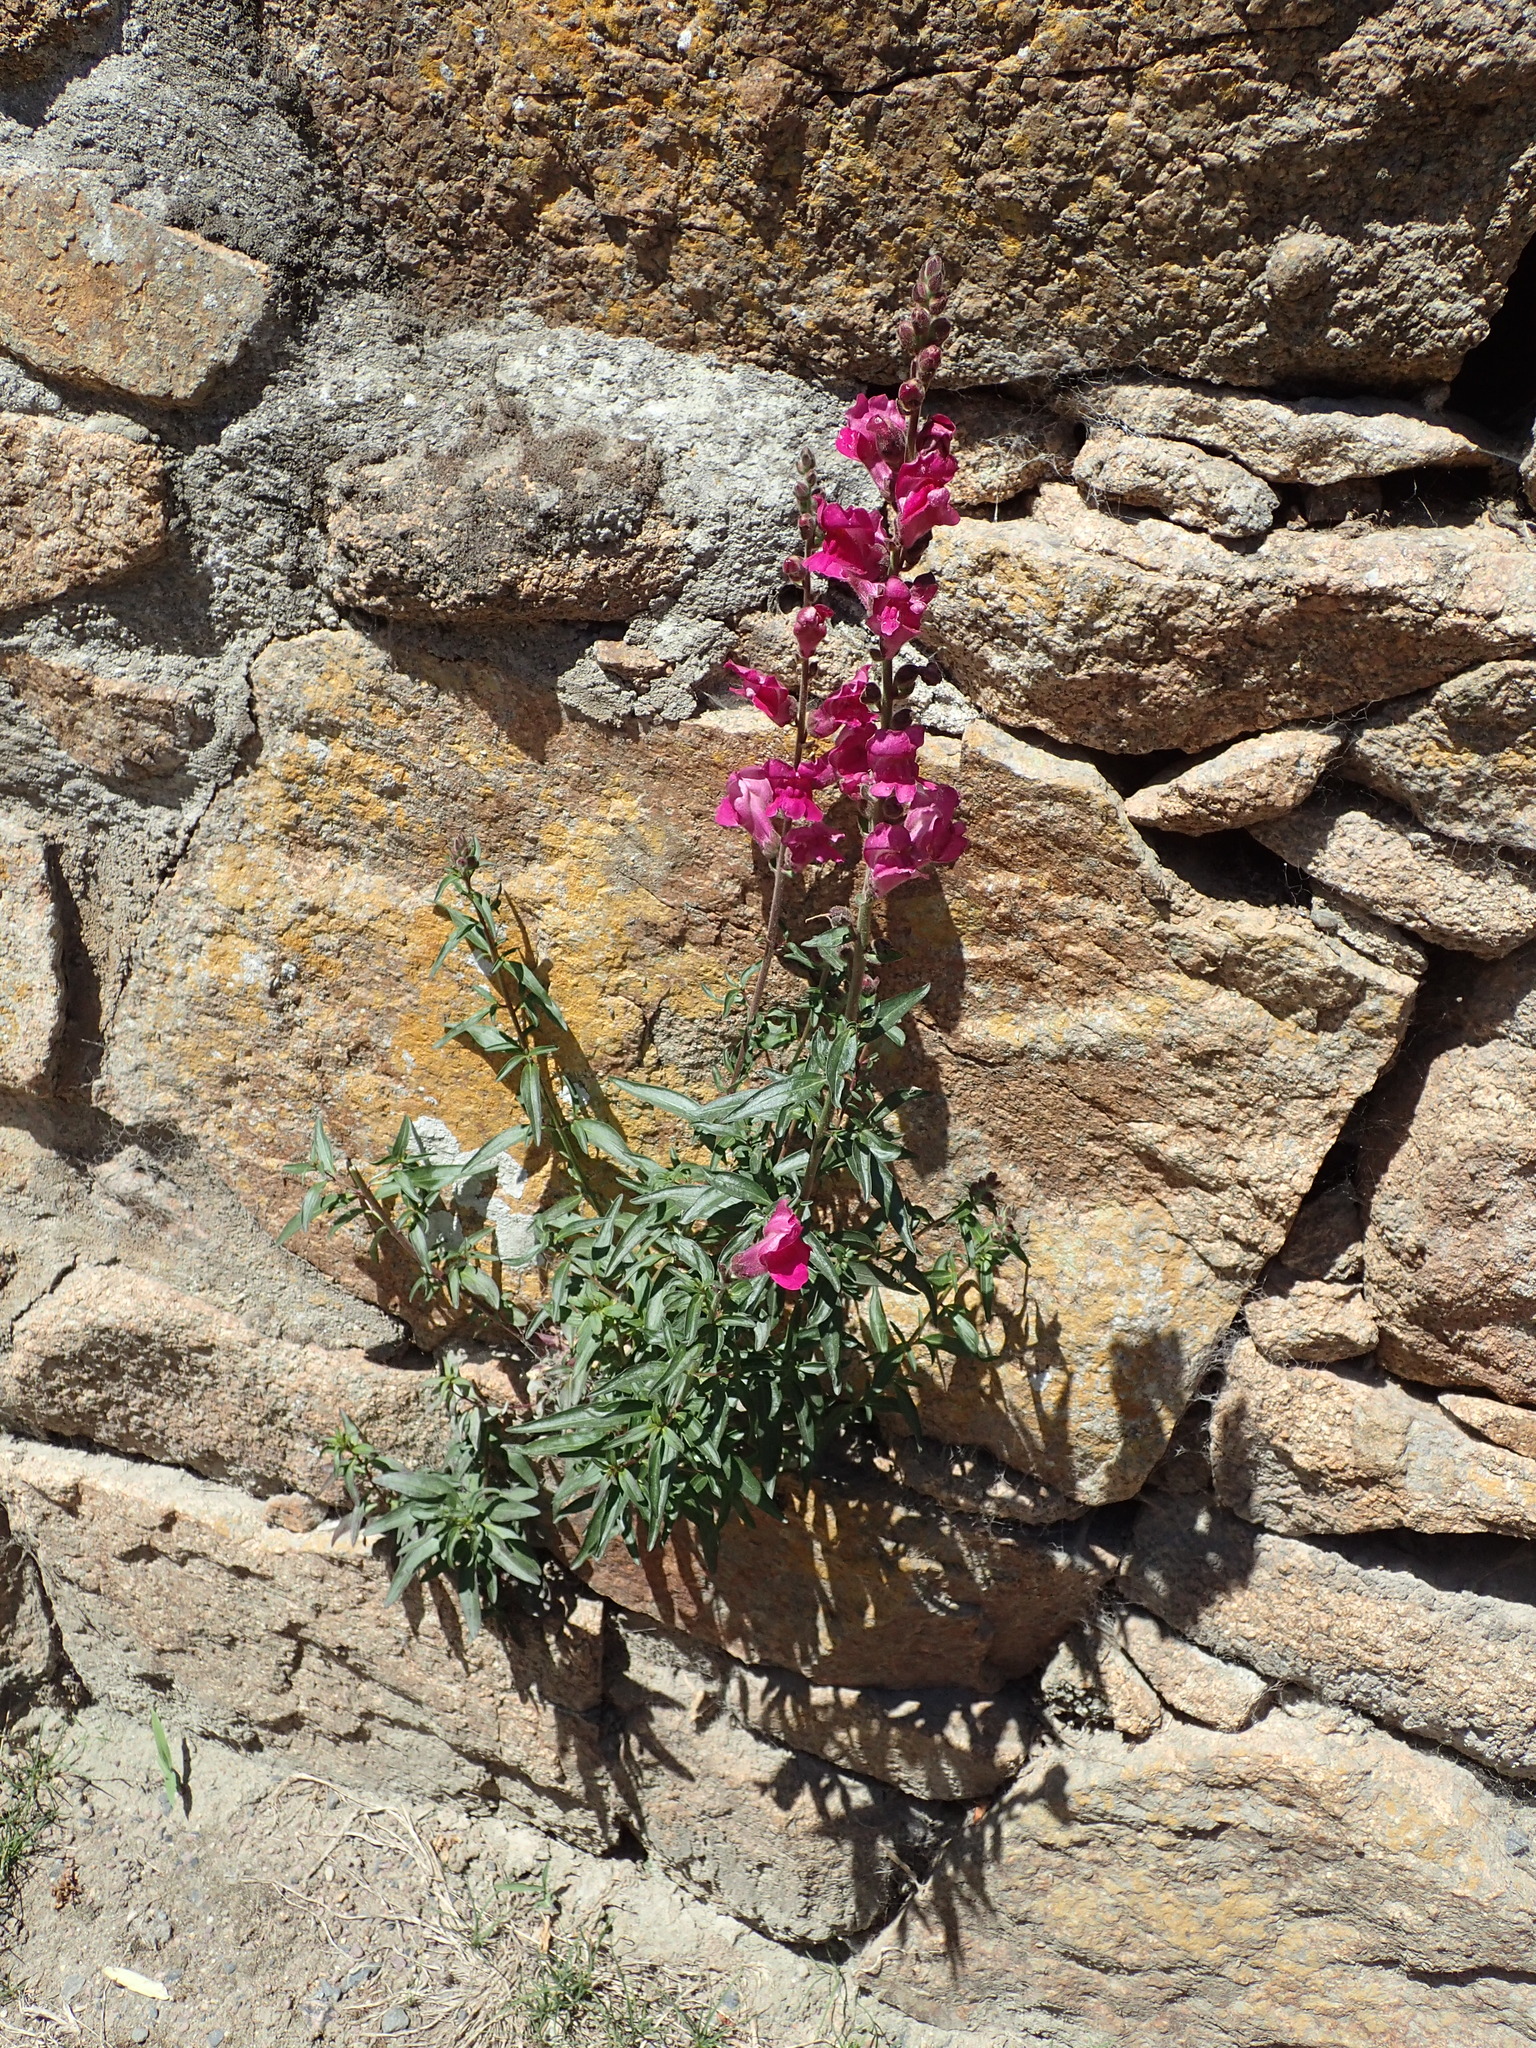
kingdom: Plantae
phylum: Tracheophyta
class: Magnoliopsida
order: Lamiales
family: Plantaginaceae
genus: Antirrhinum
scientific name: Antirrhinum majus
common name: Snapdragon
